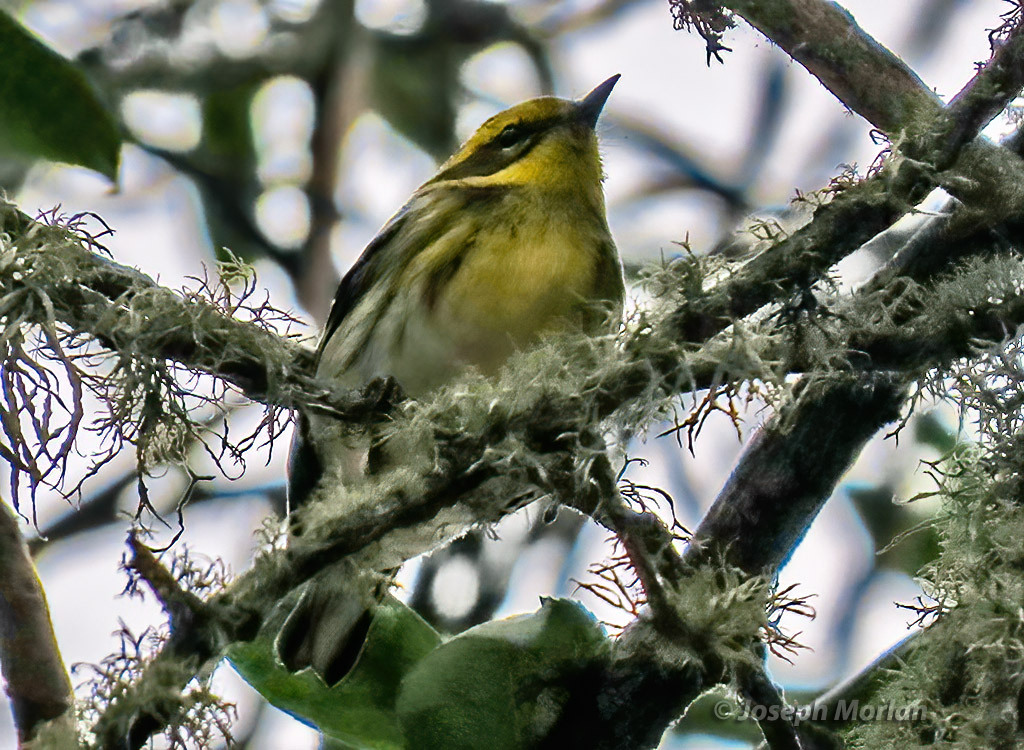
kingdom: Animalia
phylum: Chordata
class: Aves
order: Passeriformes
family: Parulidae
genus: Setophaga
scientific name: Setophaga townsendi
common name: Townsend's warbler
